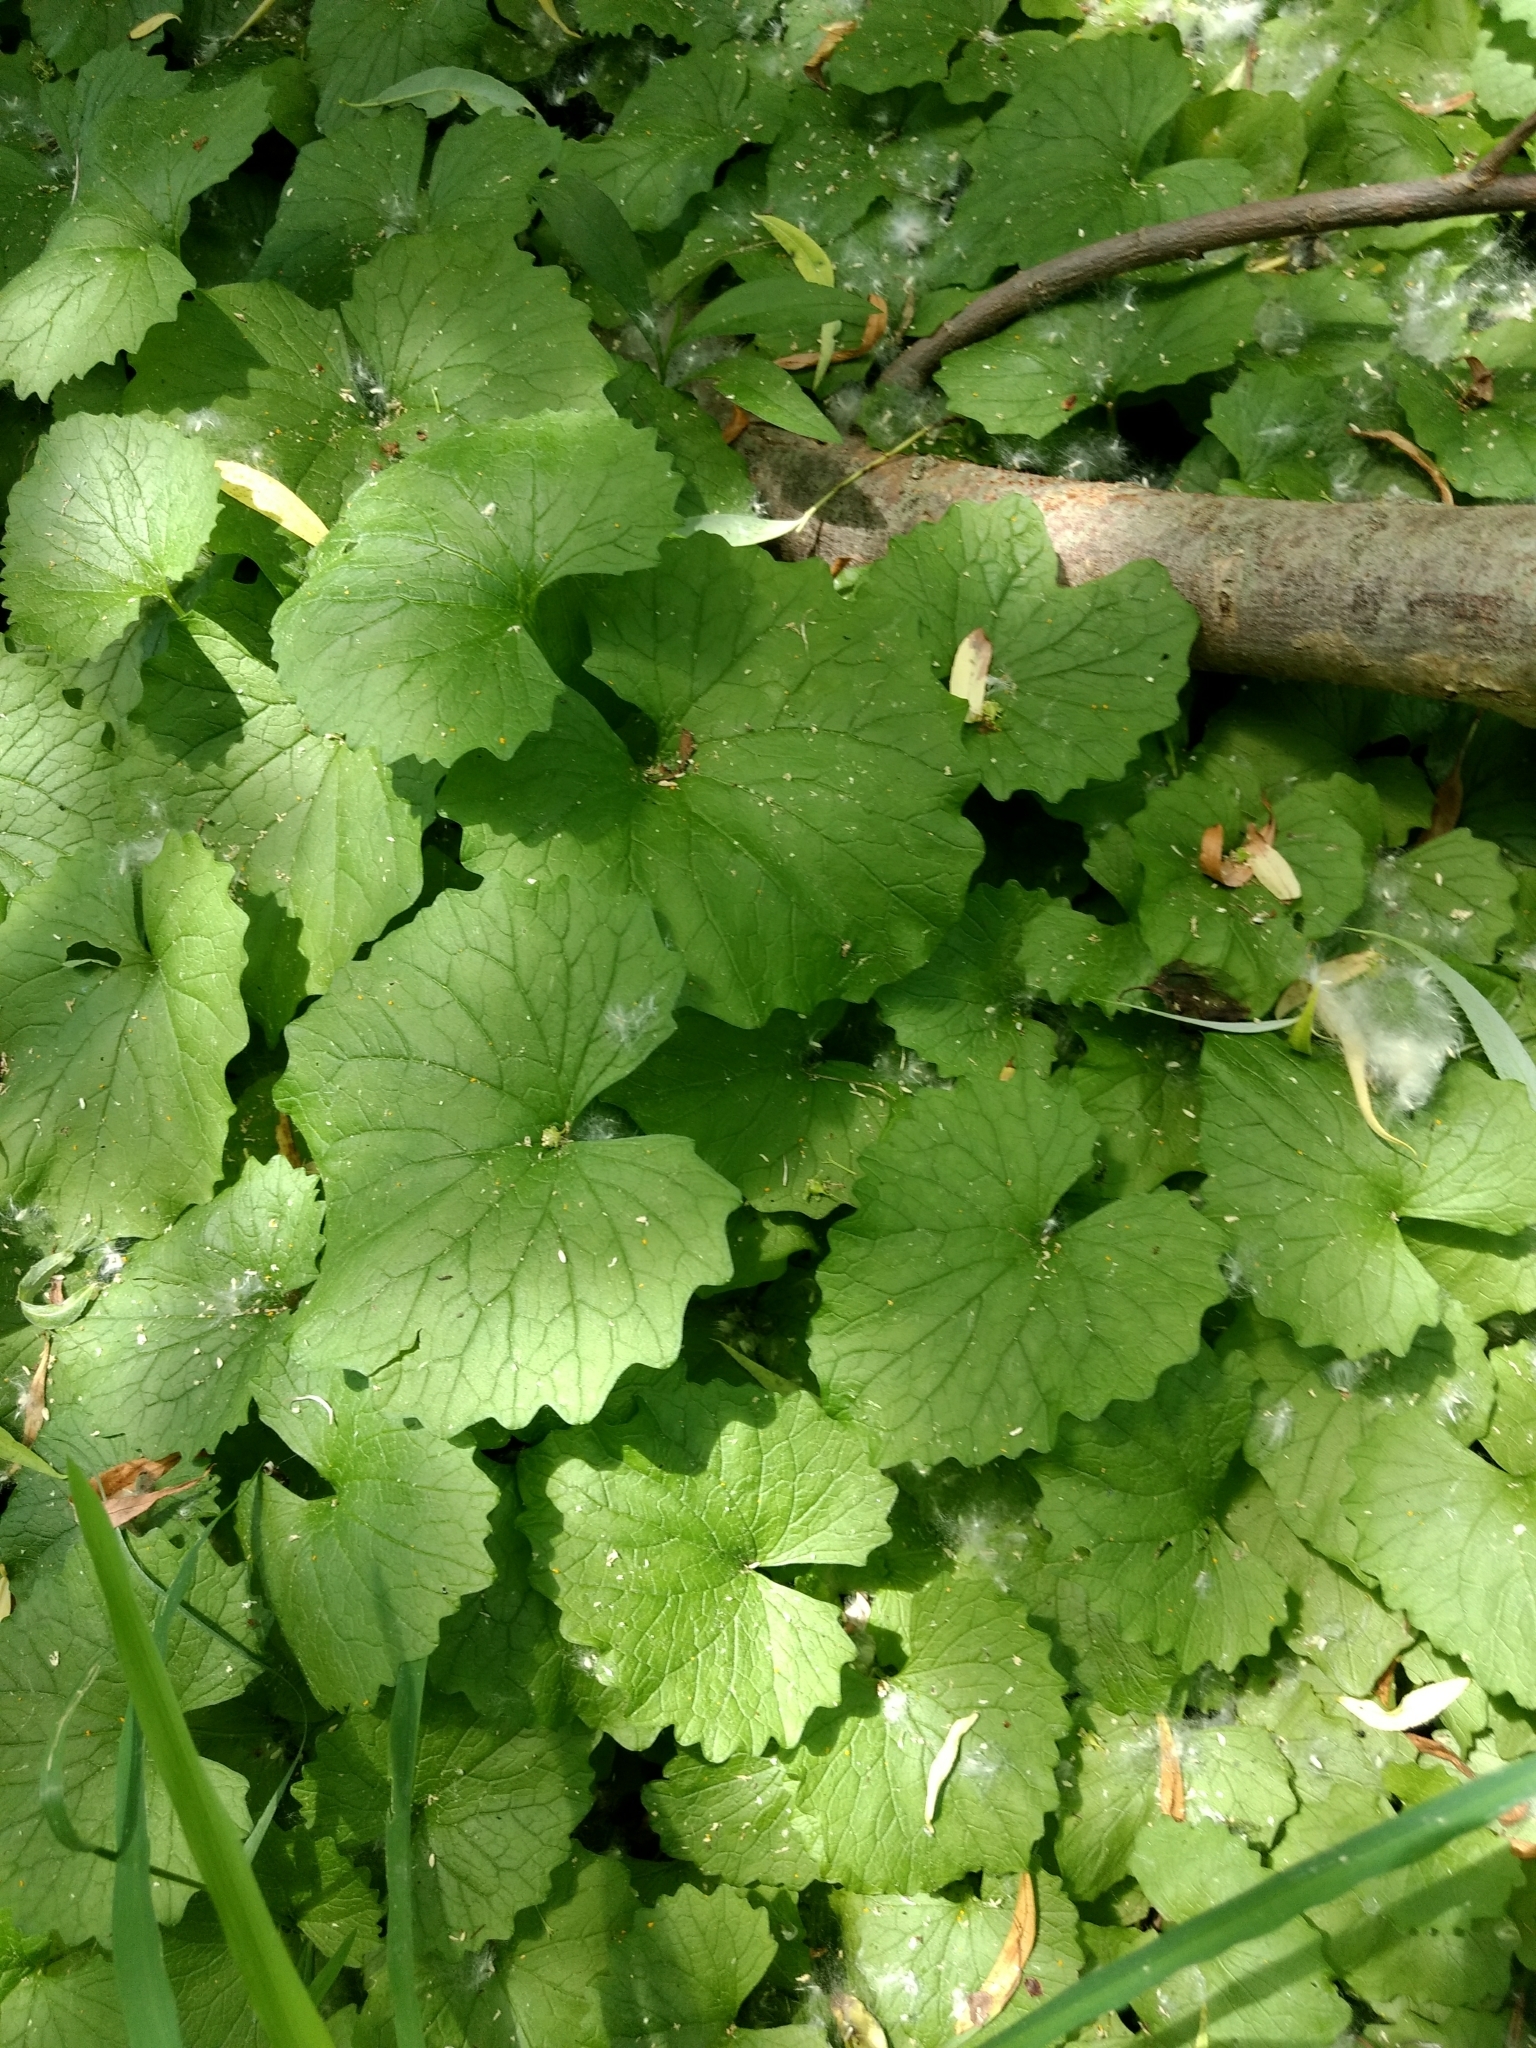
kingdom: Plantae
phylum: Tracheophyta
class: Magnoliopsida
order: Brassicales
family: Brassicaceae
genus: Alliaria
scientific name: Alliaria petiolata
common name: Garlic mustard
